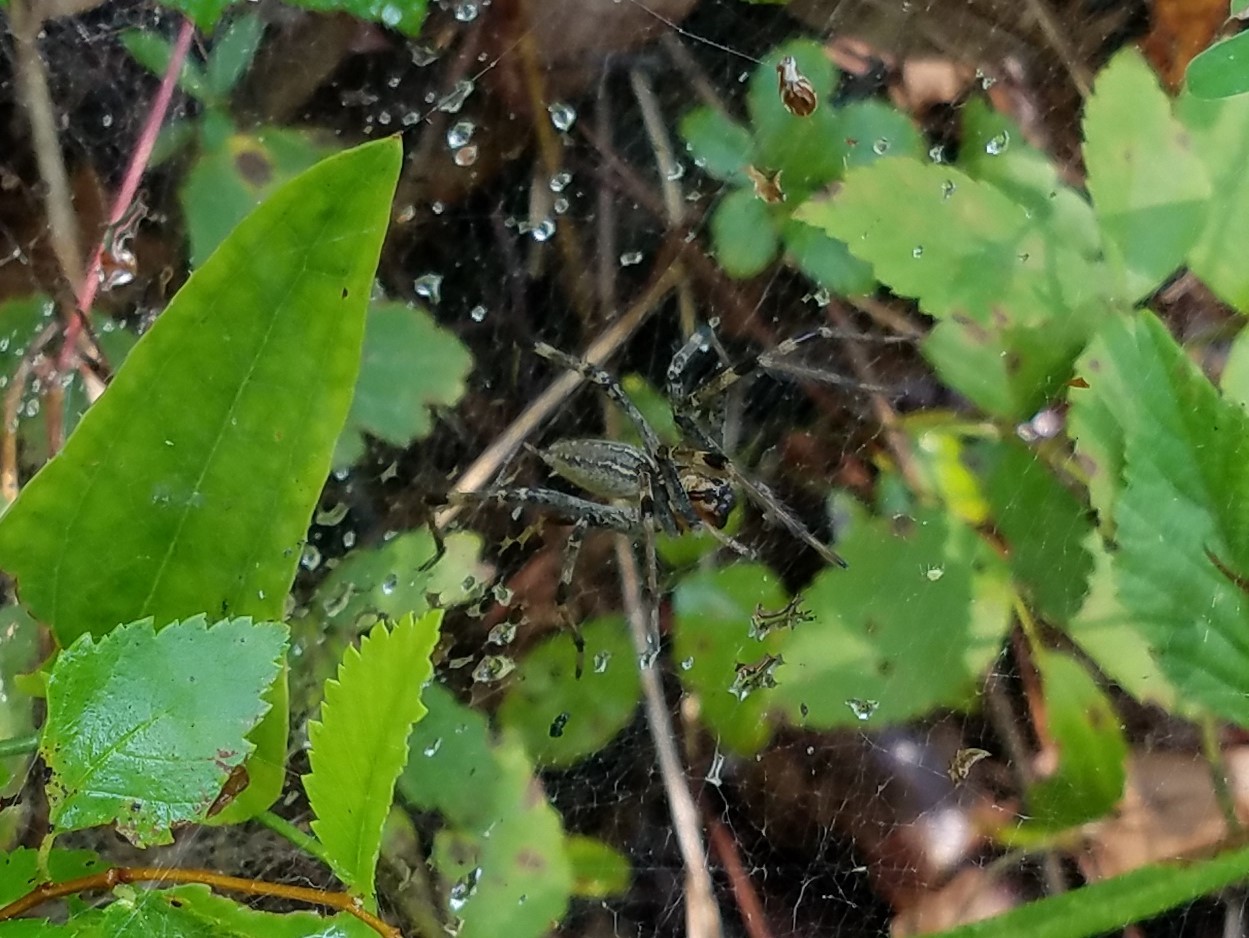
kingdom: Animalia
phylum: Arthropoda
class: Arachnida
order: Araneae
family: Agelenidae
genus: Agelenopsis
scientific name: Agelenopsis
